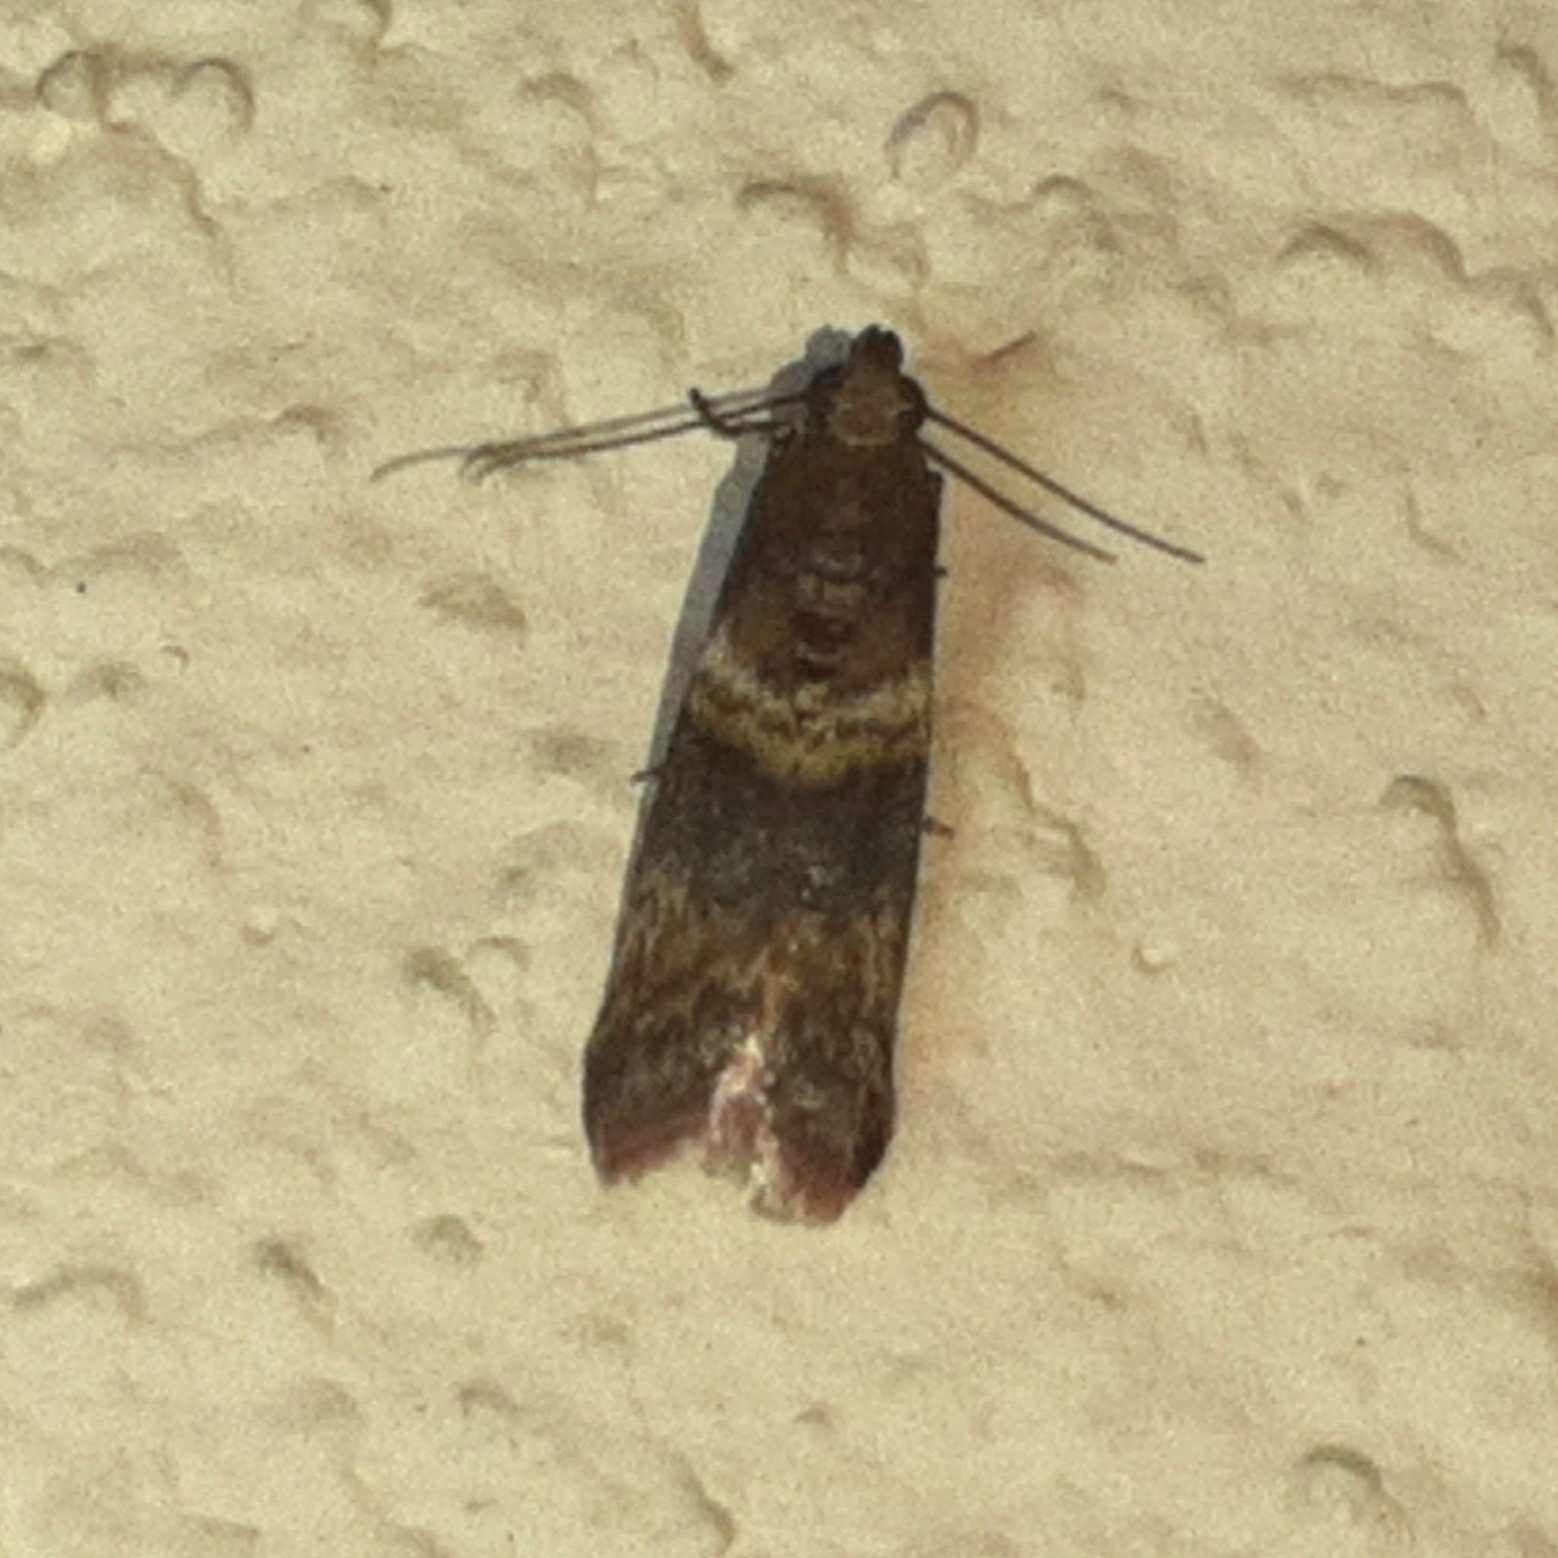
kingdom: Animalia
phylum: Arthropoda
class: Insecta
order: Lepidoptera
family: Pyralidae
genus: Davara
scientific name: Davara caricae
